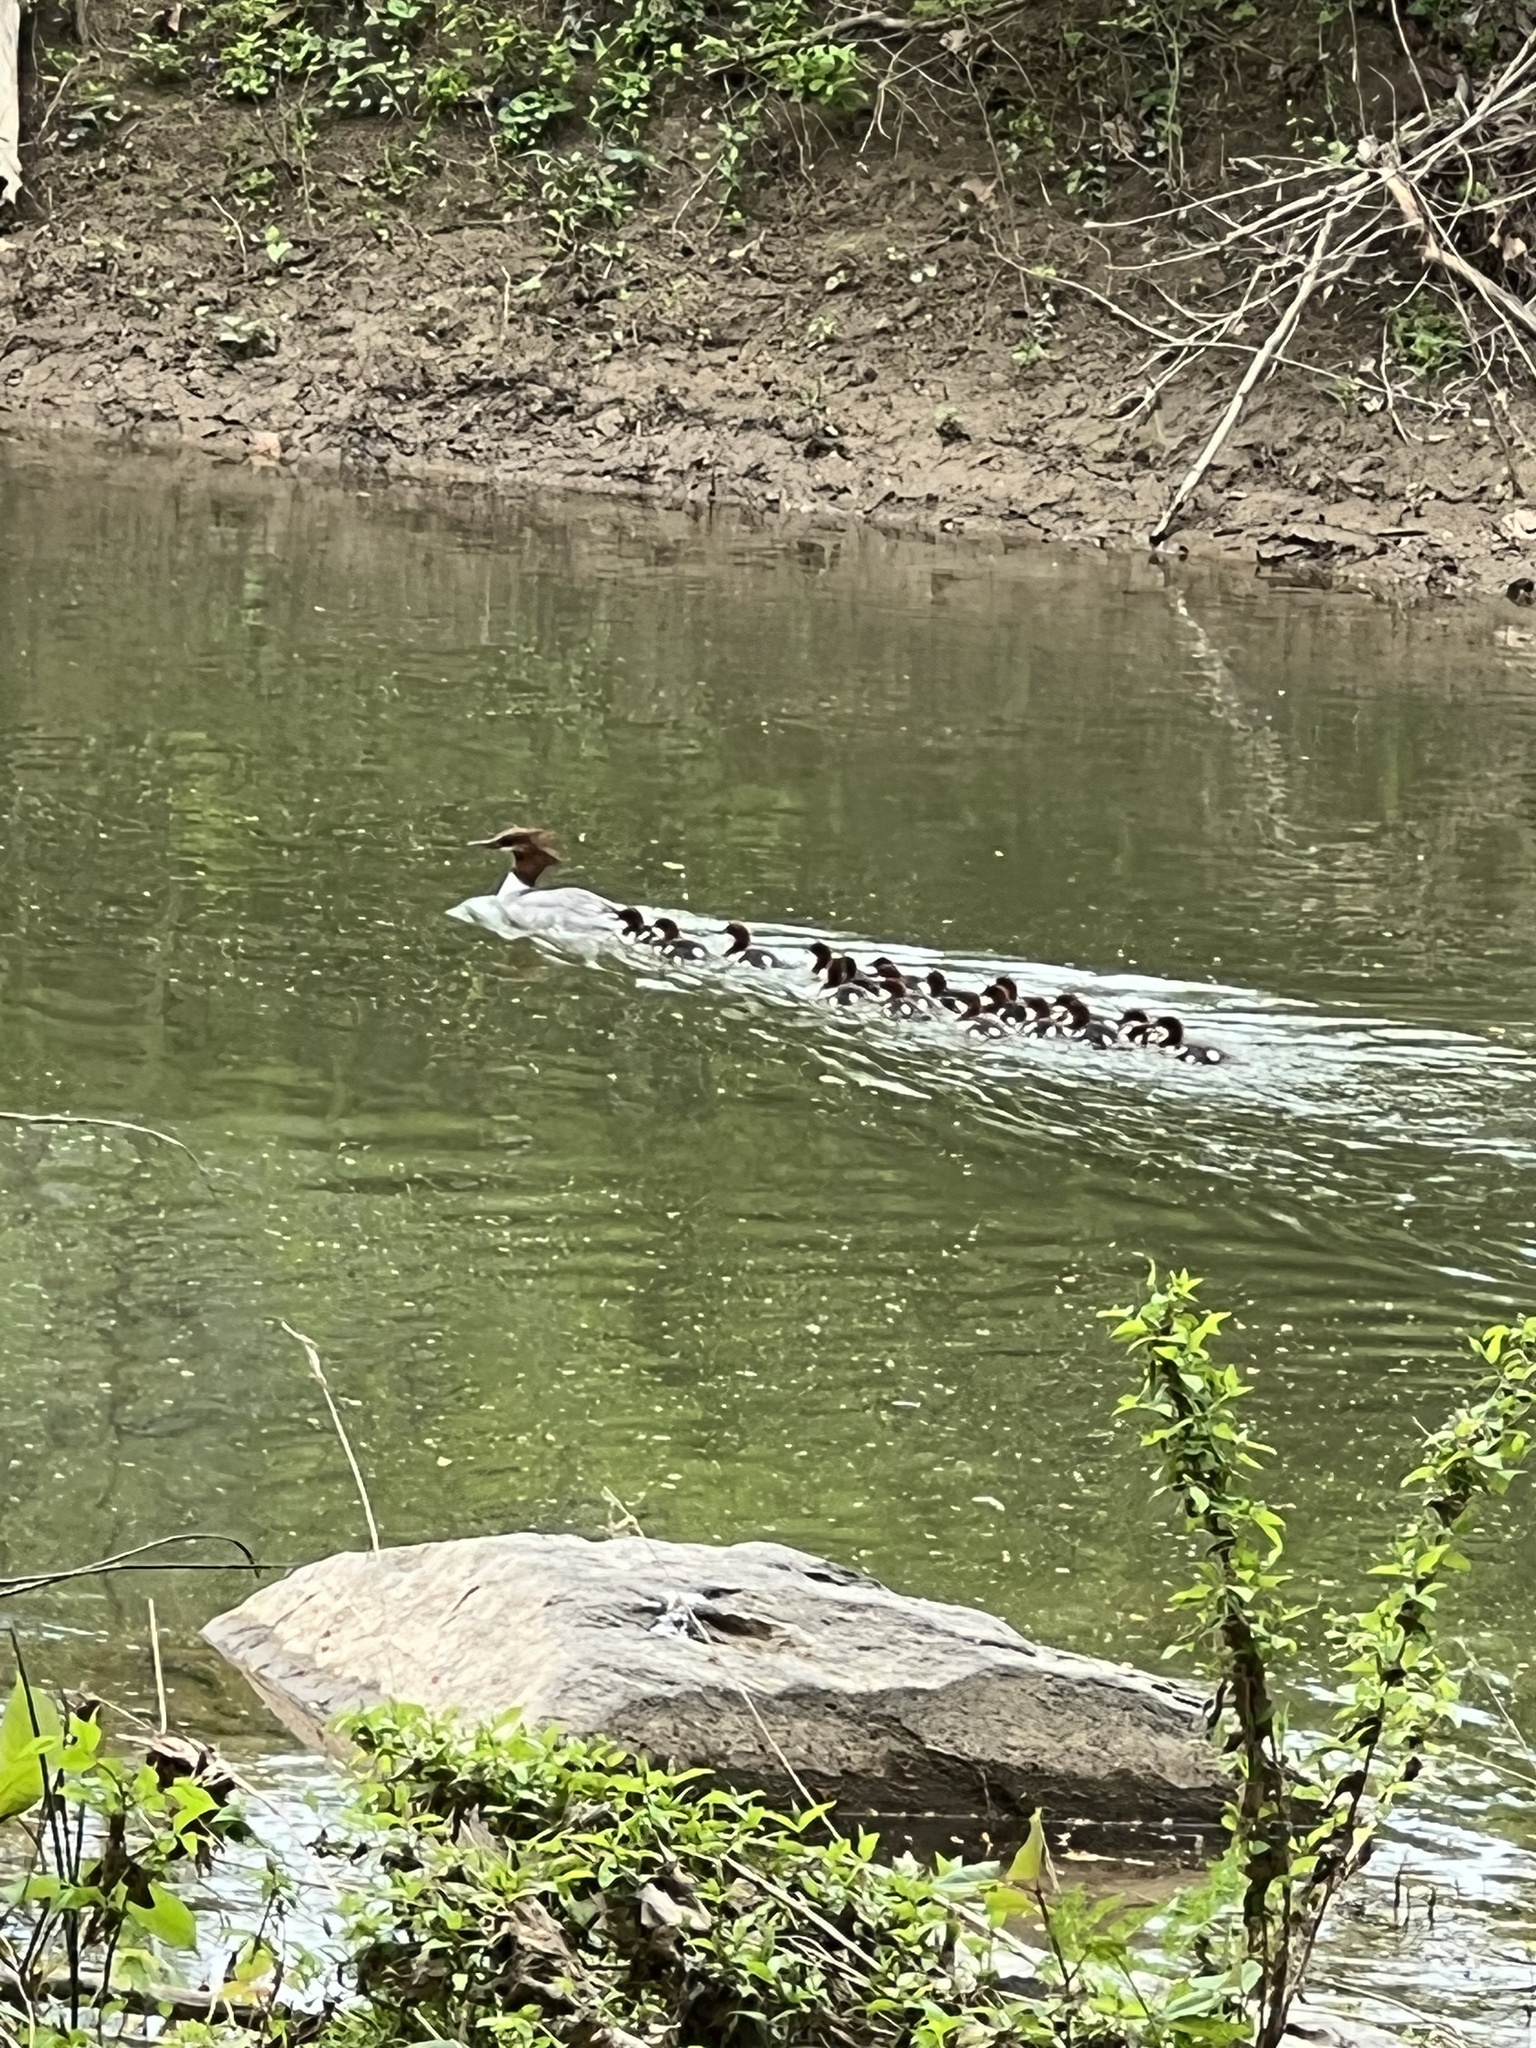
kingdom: Animalia
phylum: Chordata
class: Aves
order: Anseriformes
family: Anatidae
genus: Mergus
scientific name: Mergus merganser
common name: Common merganser
